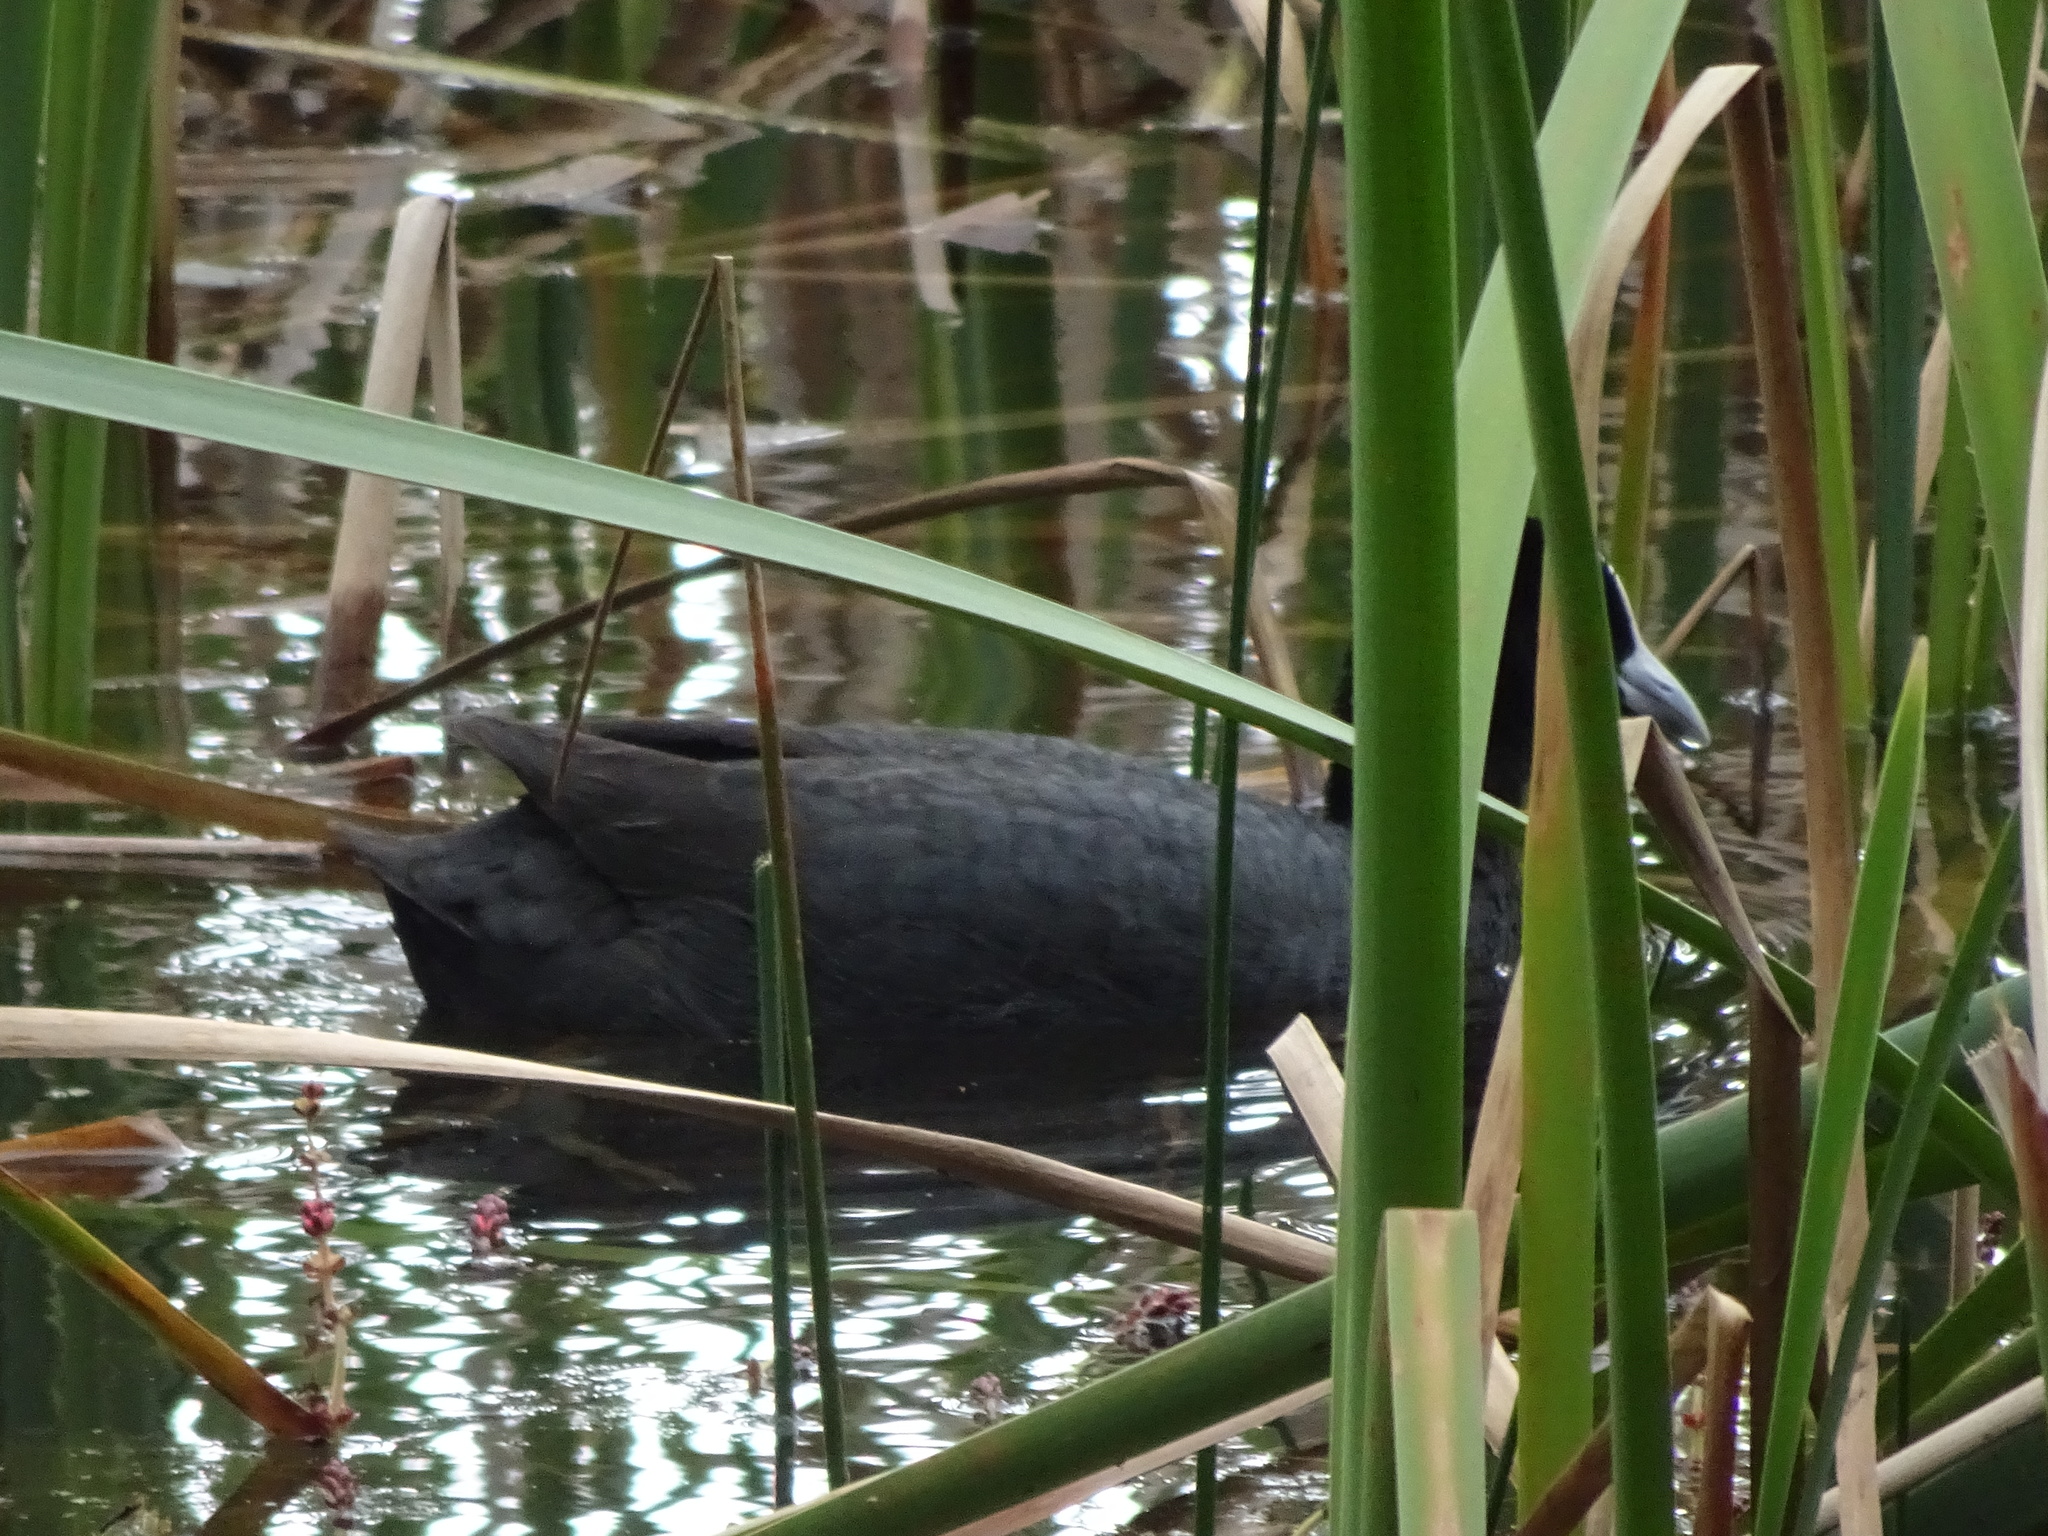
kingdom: Animalia
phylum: Chordata
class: Aves
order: Gruiformes
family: Rallidae
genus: Fulica
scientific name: Fulica atra
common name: Eurasian coot
